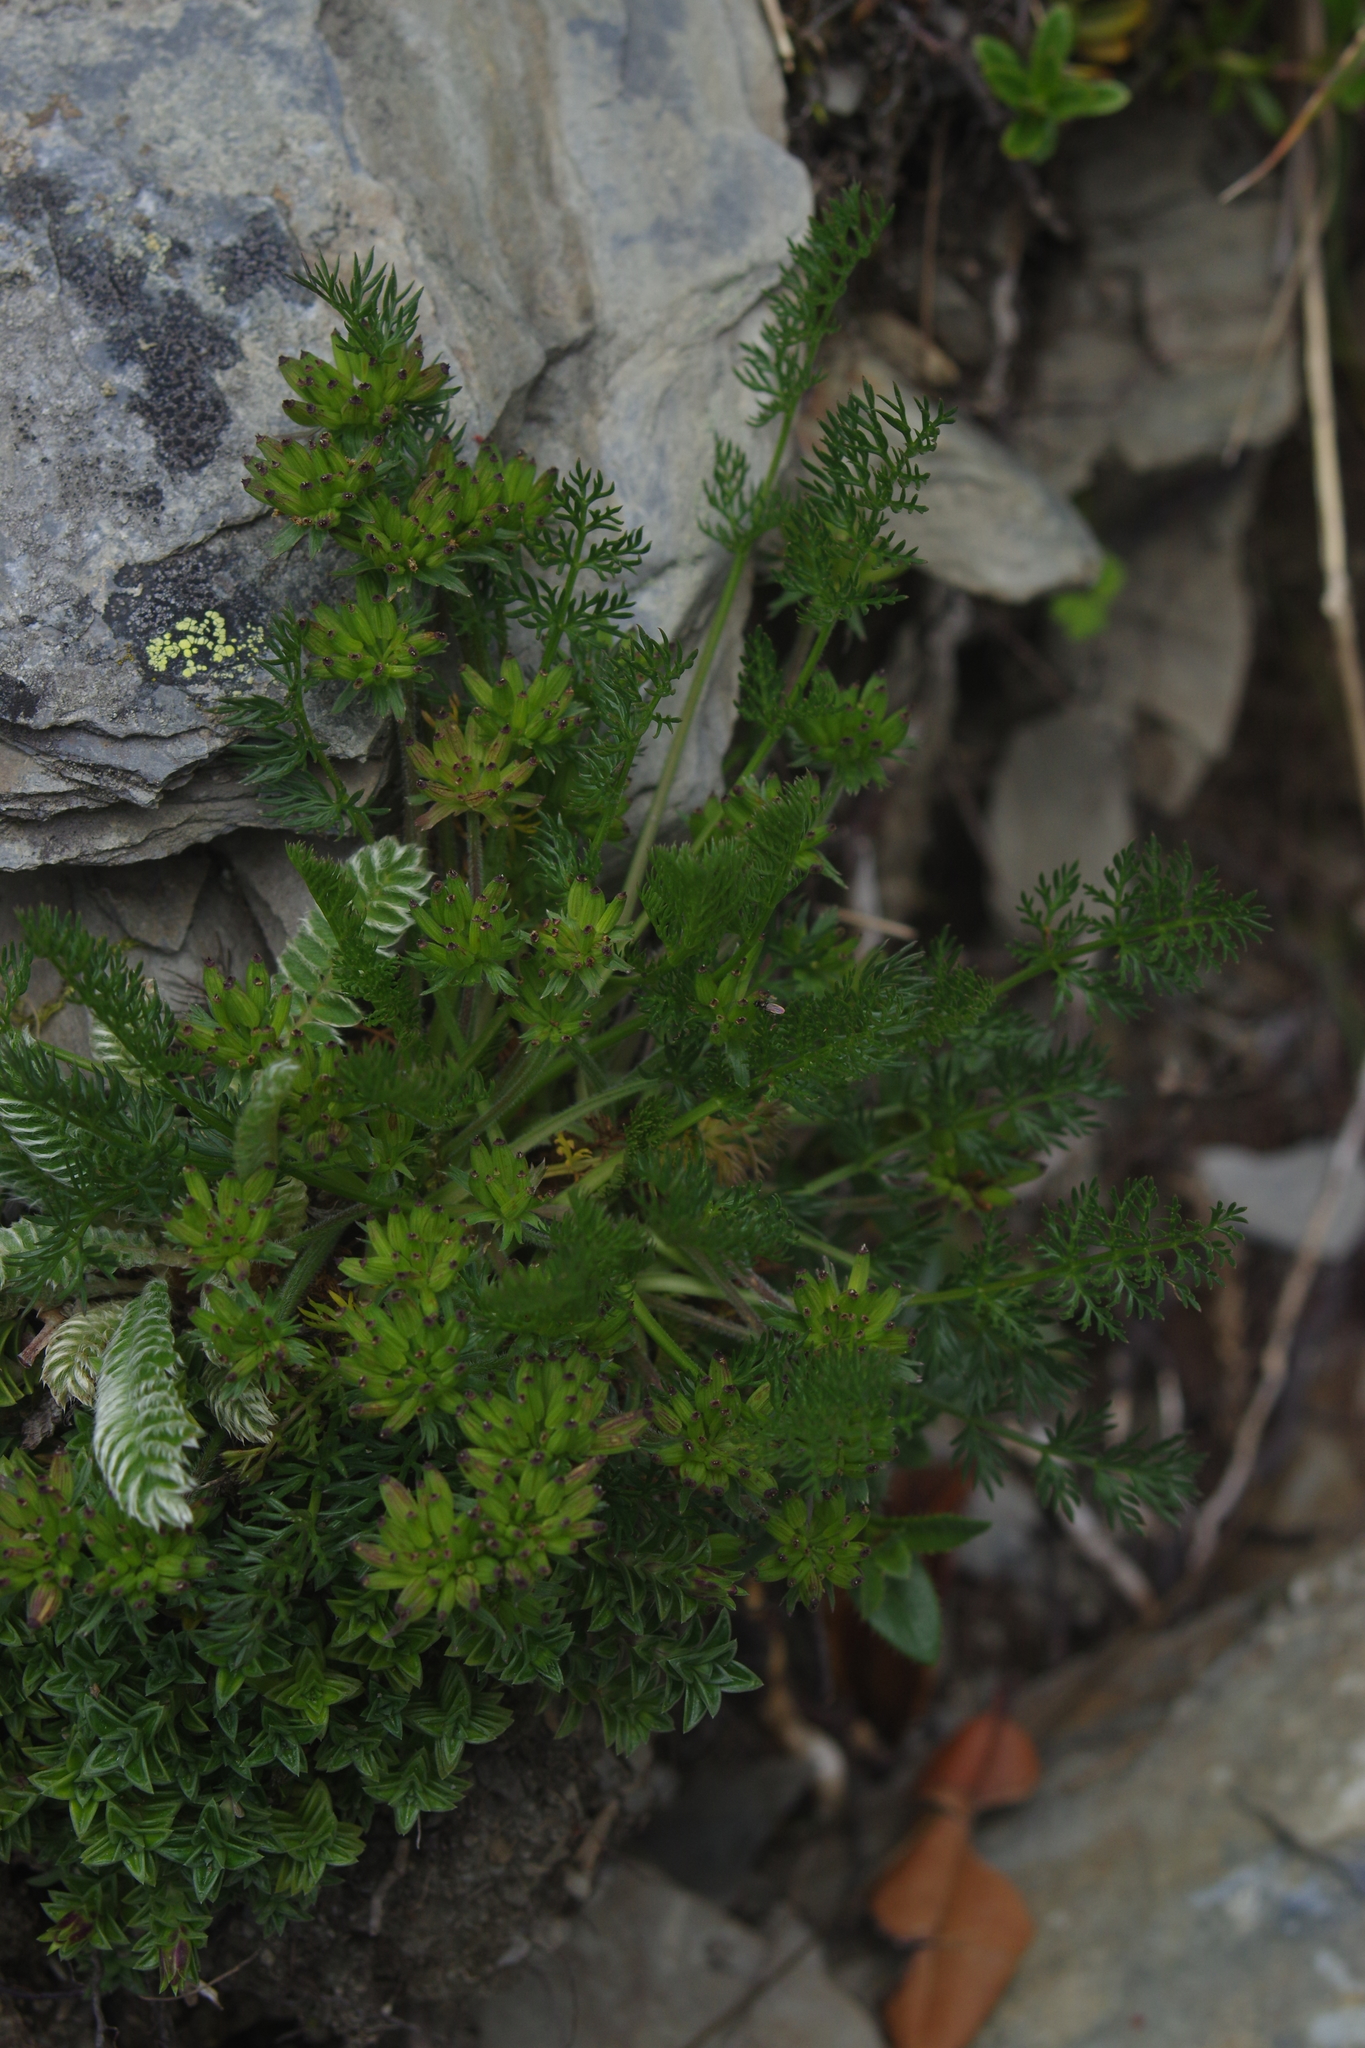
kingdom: Plantae
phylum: Tracheophyta
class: Magnoliopsida
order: Apiales
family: Apiaceae
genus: Chaerophyllum
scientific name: Chaerophyllum nanhuense
